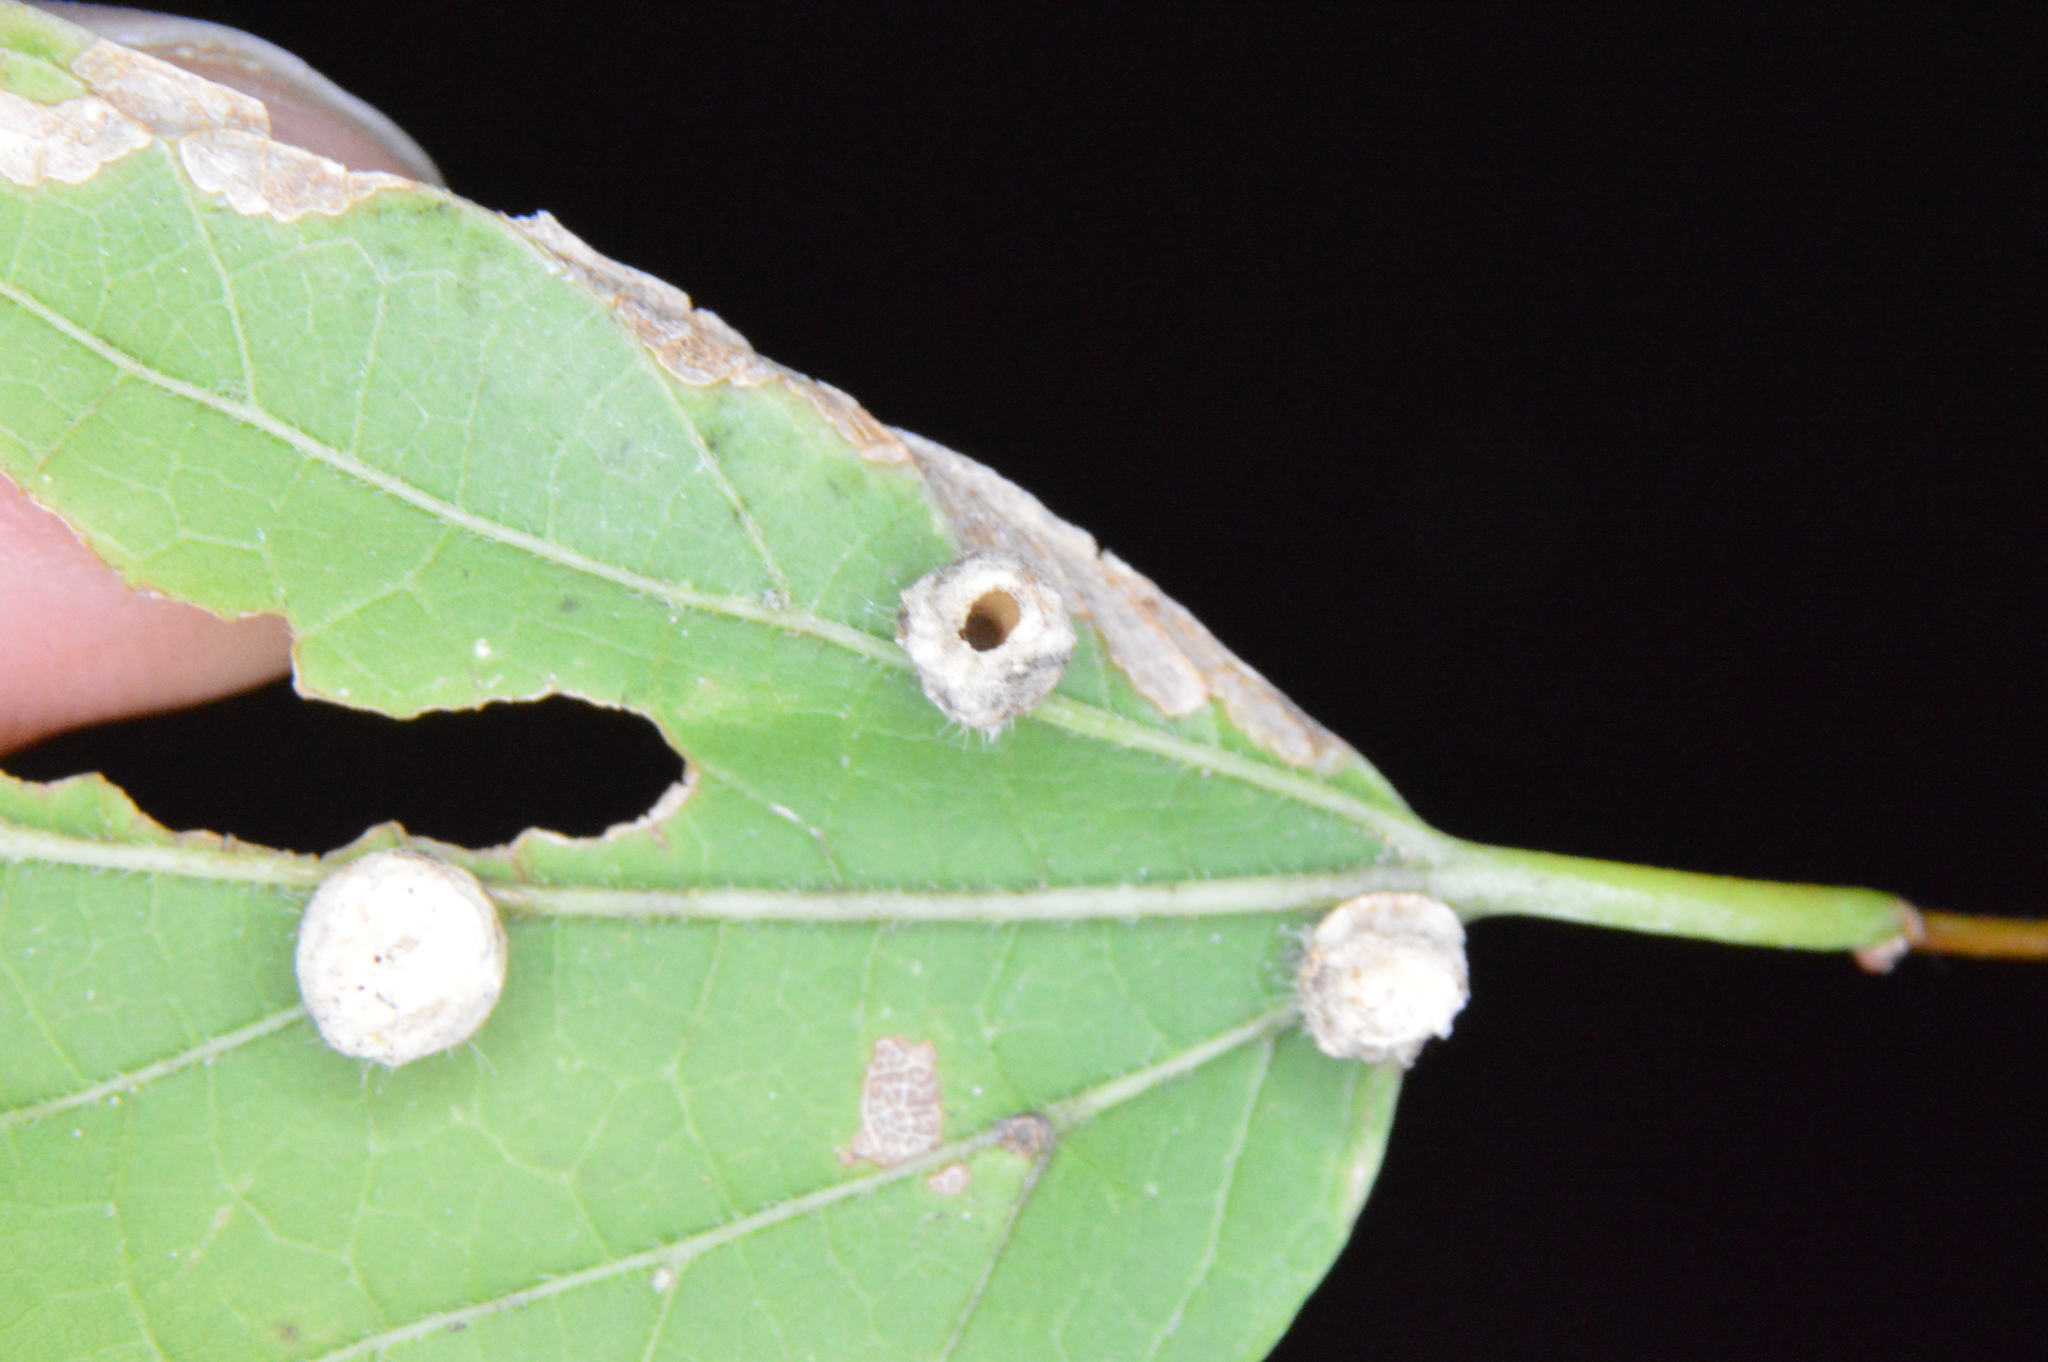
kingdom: Animalia
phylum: Arthropoda
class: Insecta
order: Diptera
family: Cecidomyiidae
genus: Celticecis
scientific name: Celticecis pubescens
